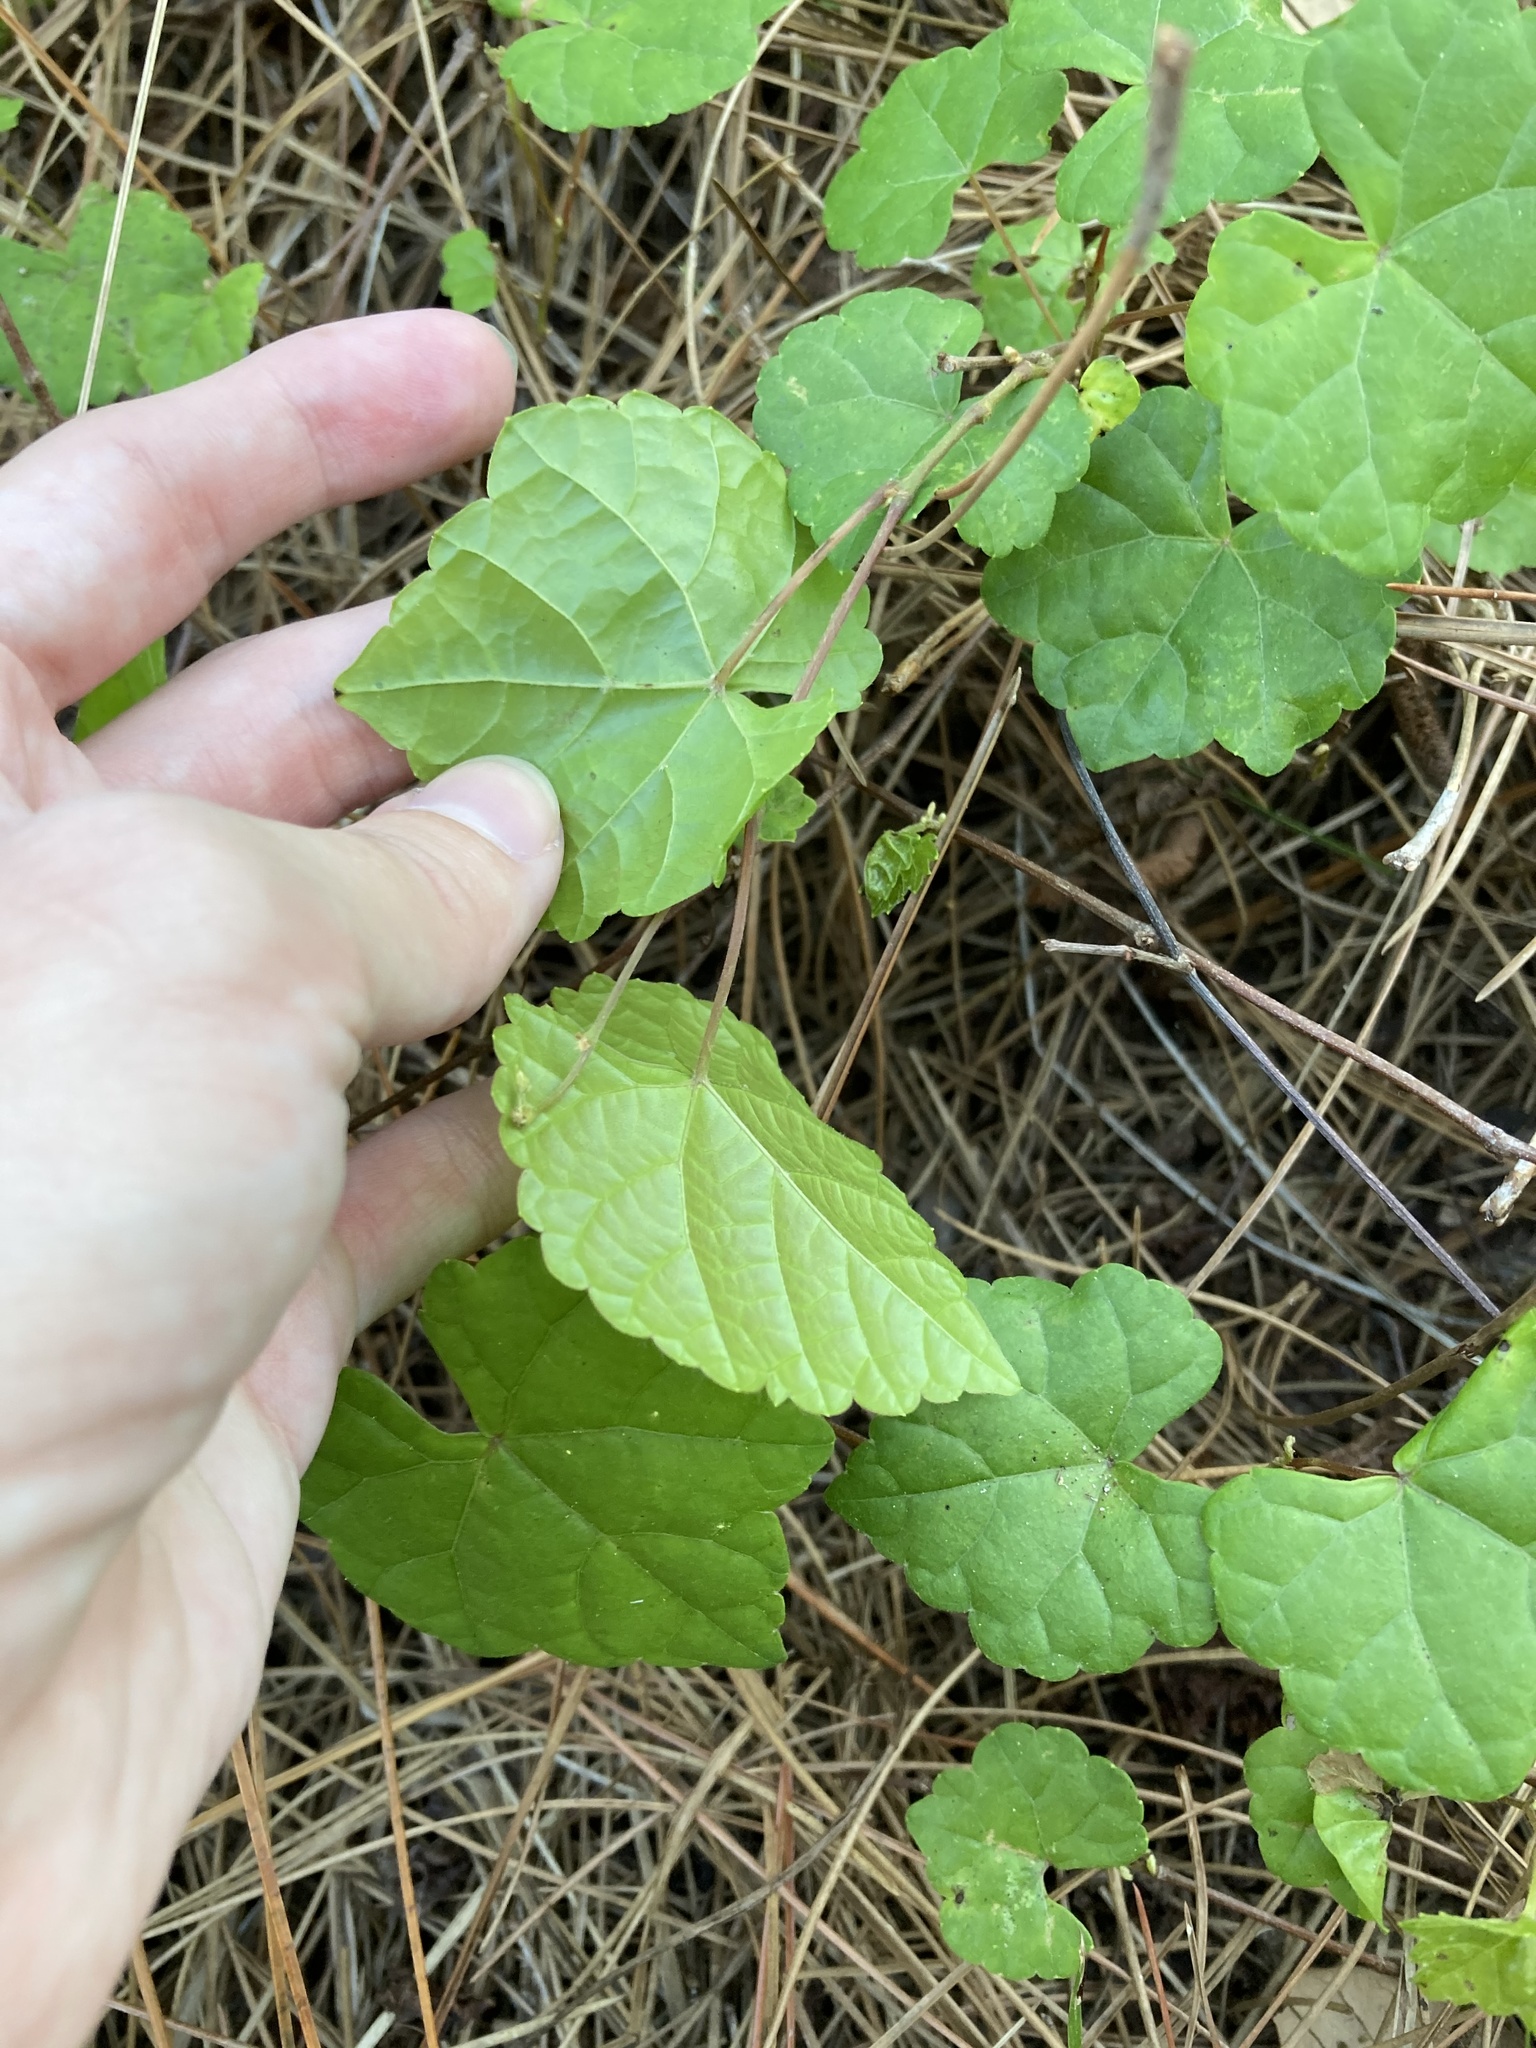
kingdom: Plantae
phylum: Tracheophyta
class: Magnoliopsida
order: Vitales
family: Vitaceae
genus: Vitis
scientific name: Vitis rotundifolia
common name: Muscadine grape
